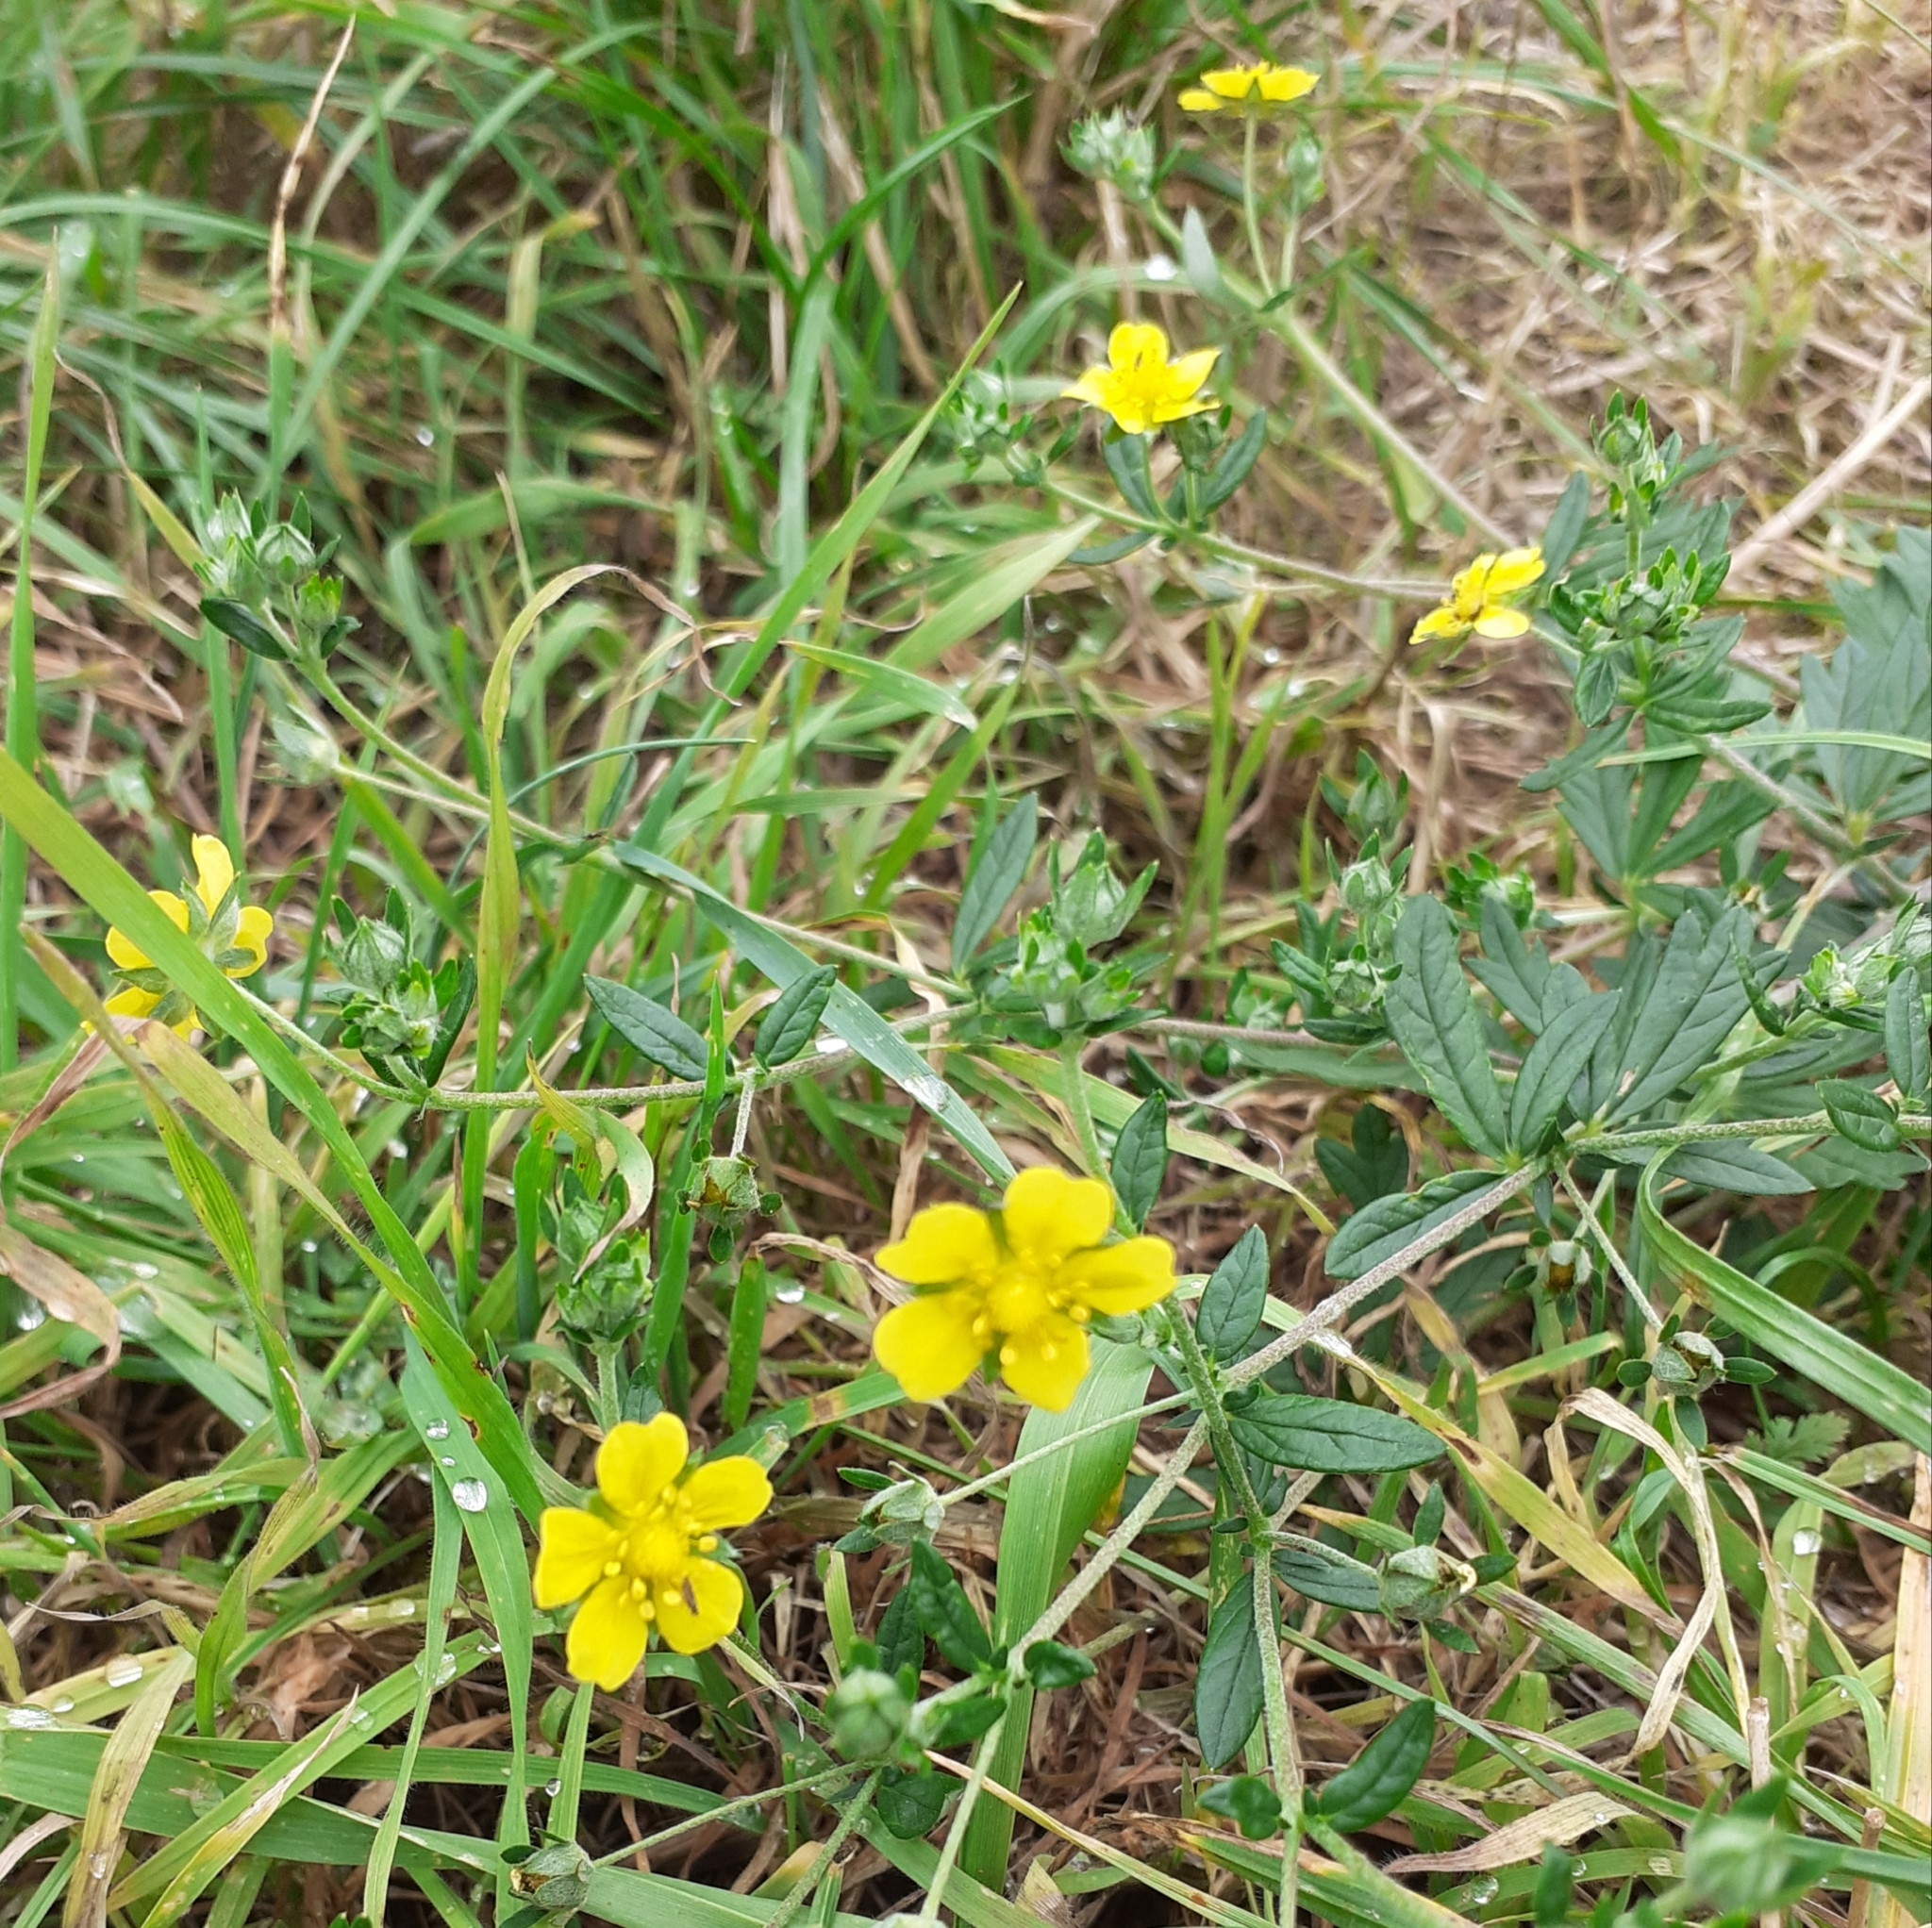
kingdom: Plantae
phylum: Tracheophyta
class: Magnoliopsida
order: Rosales
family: Rosaceae
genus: Potentilla
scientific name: Potentilla argentea
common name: Hoary cinquefoil
